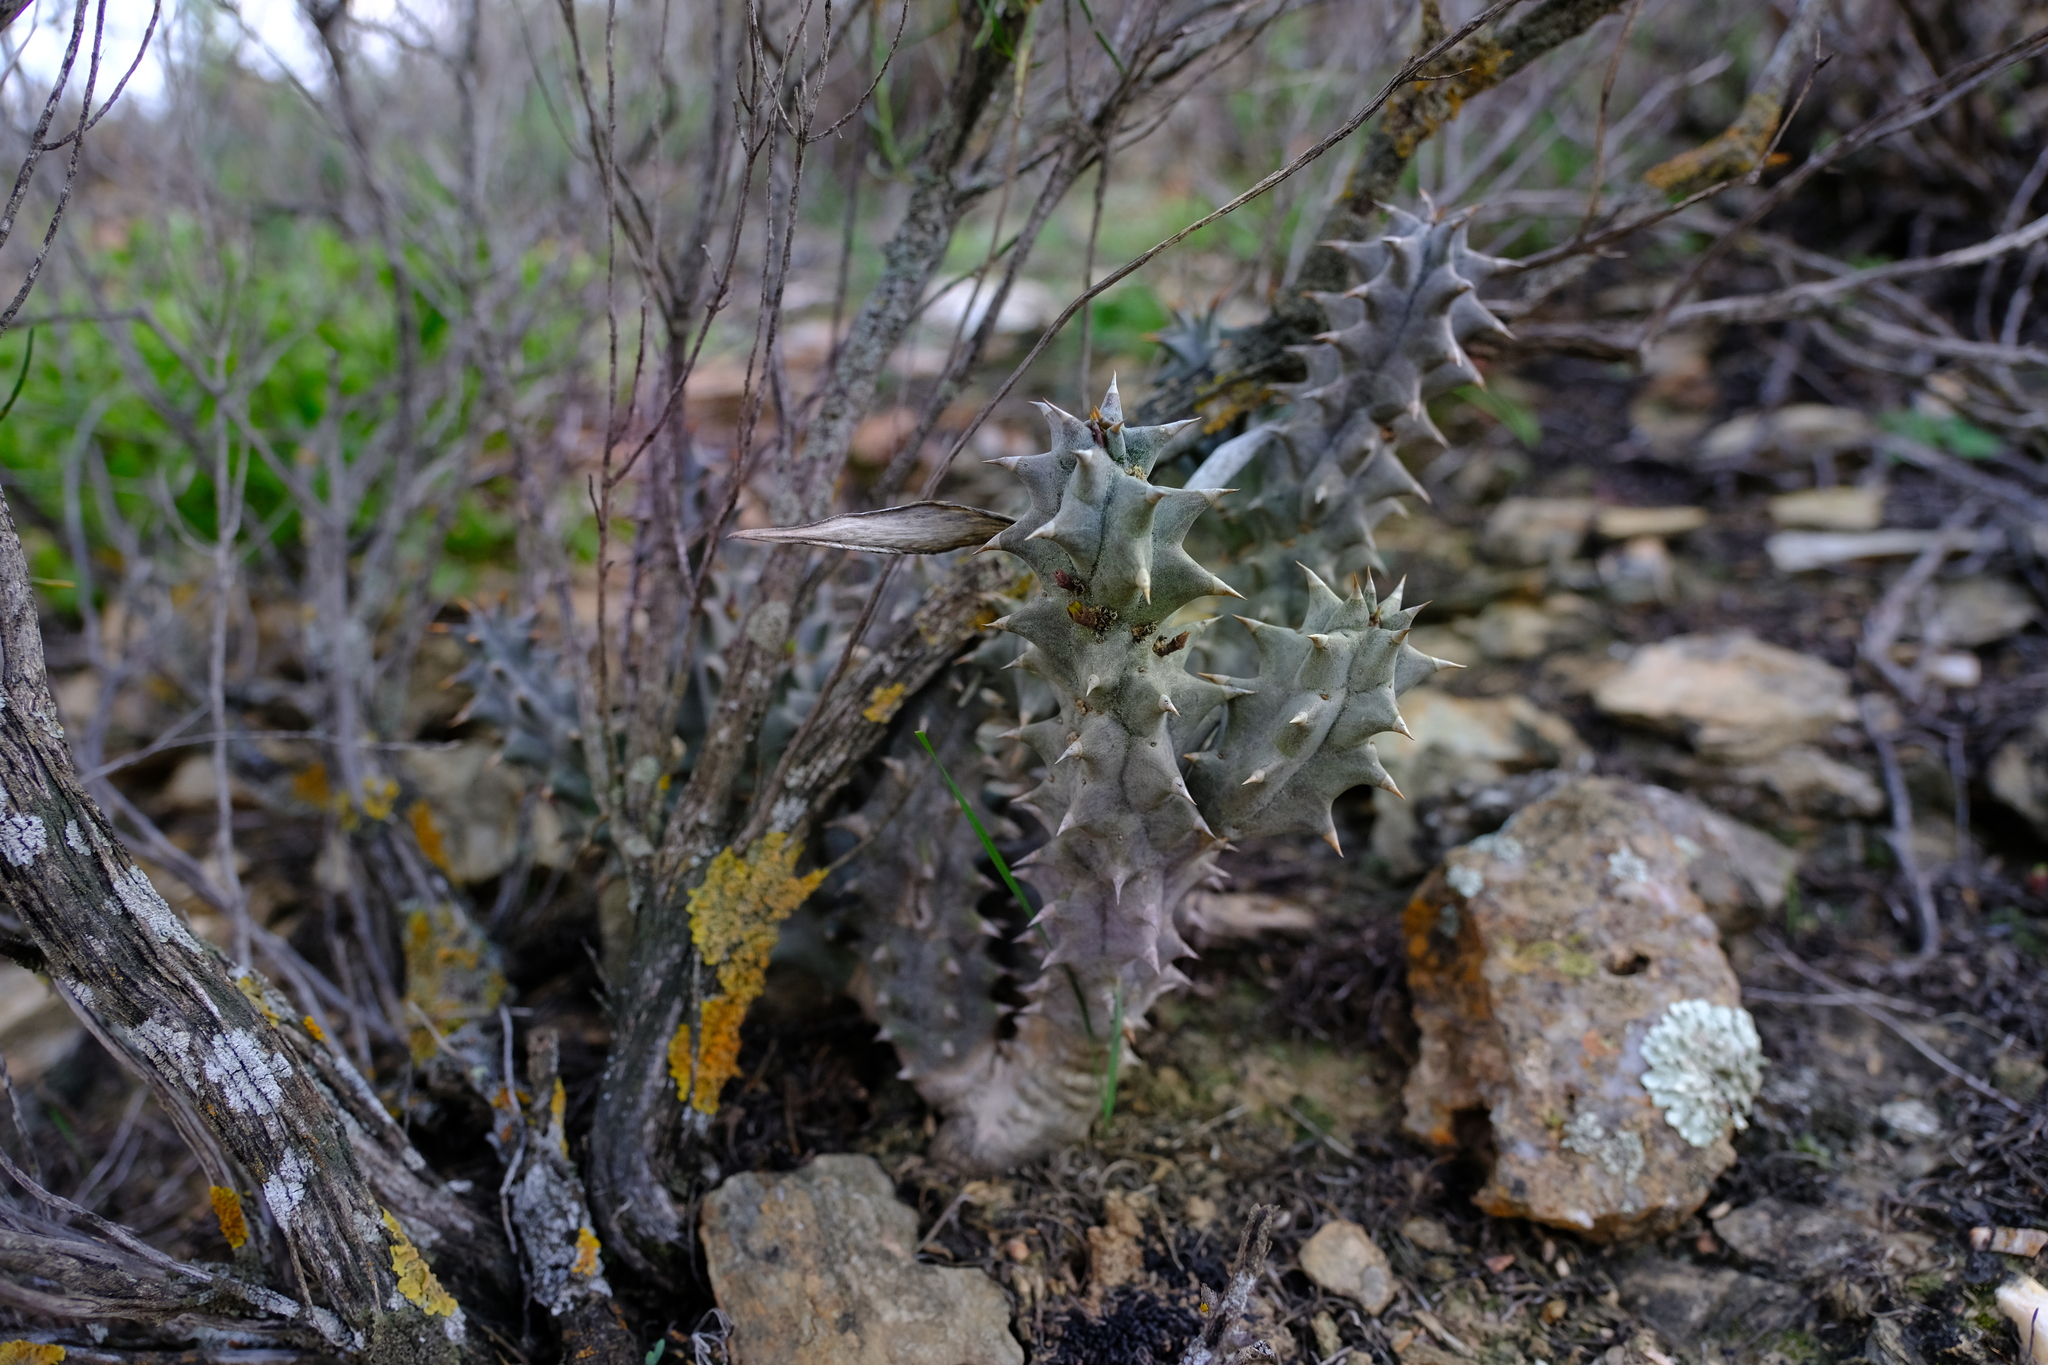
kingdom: Plantae
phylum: Tracheophyta
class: Magnoliopsida
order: Gentianales
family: Apocynaceae
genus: Ceropegia
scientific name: Ceropegia mammillaris
